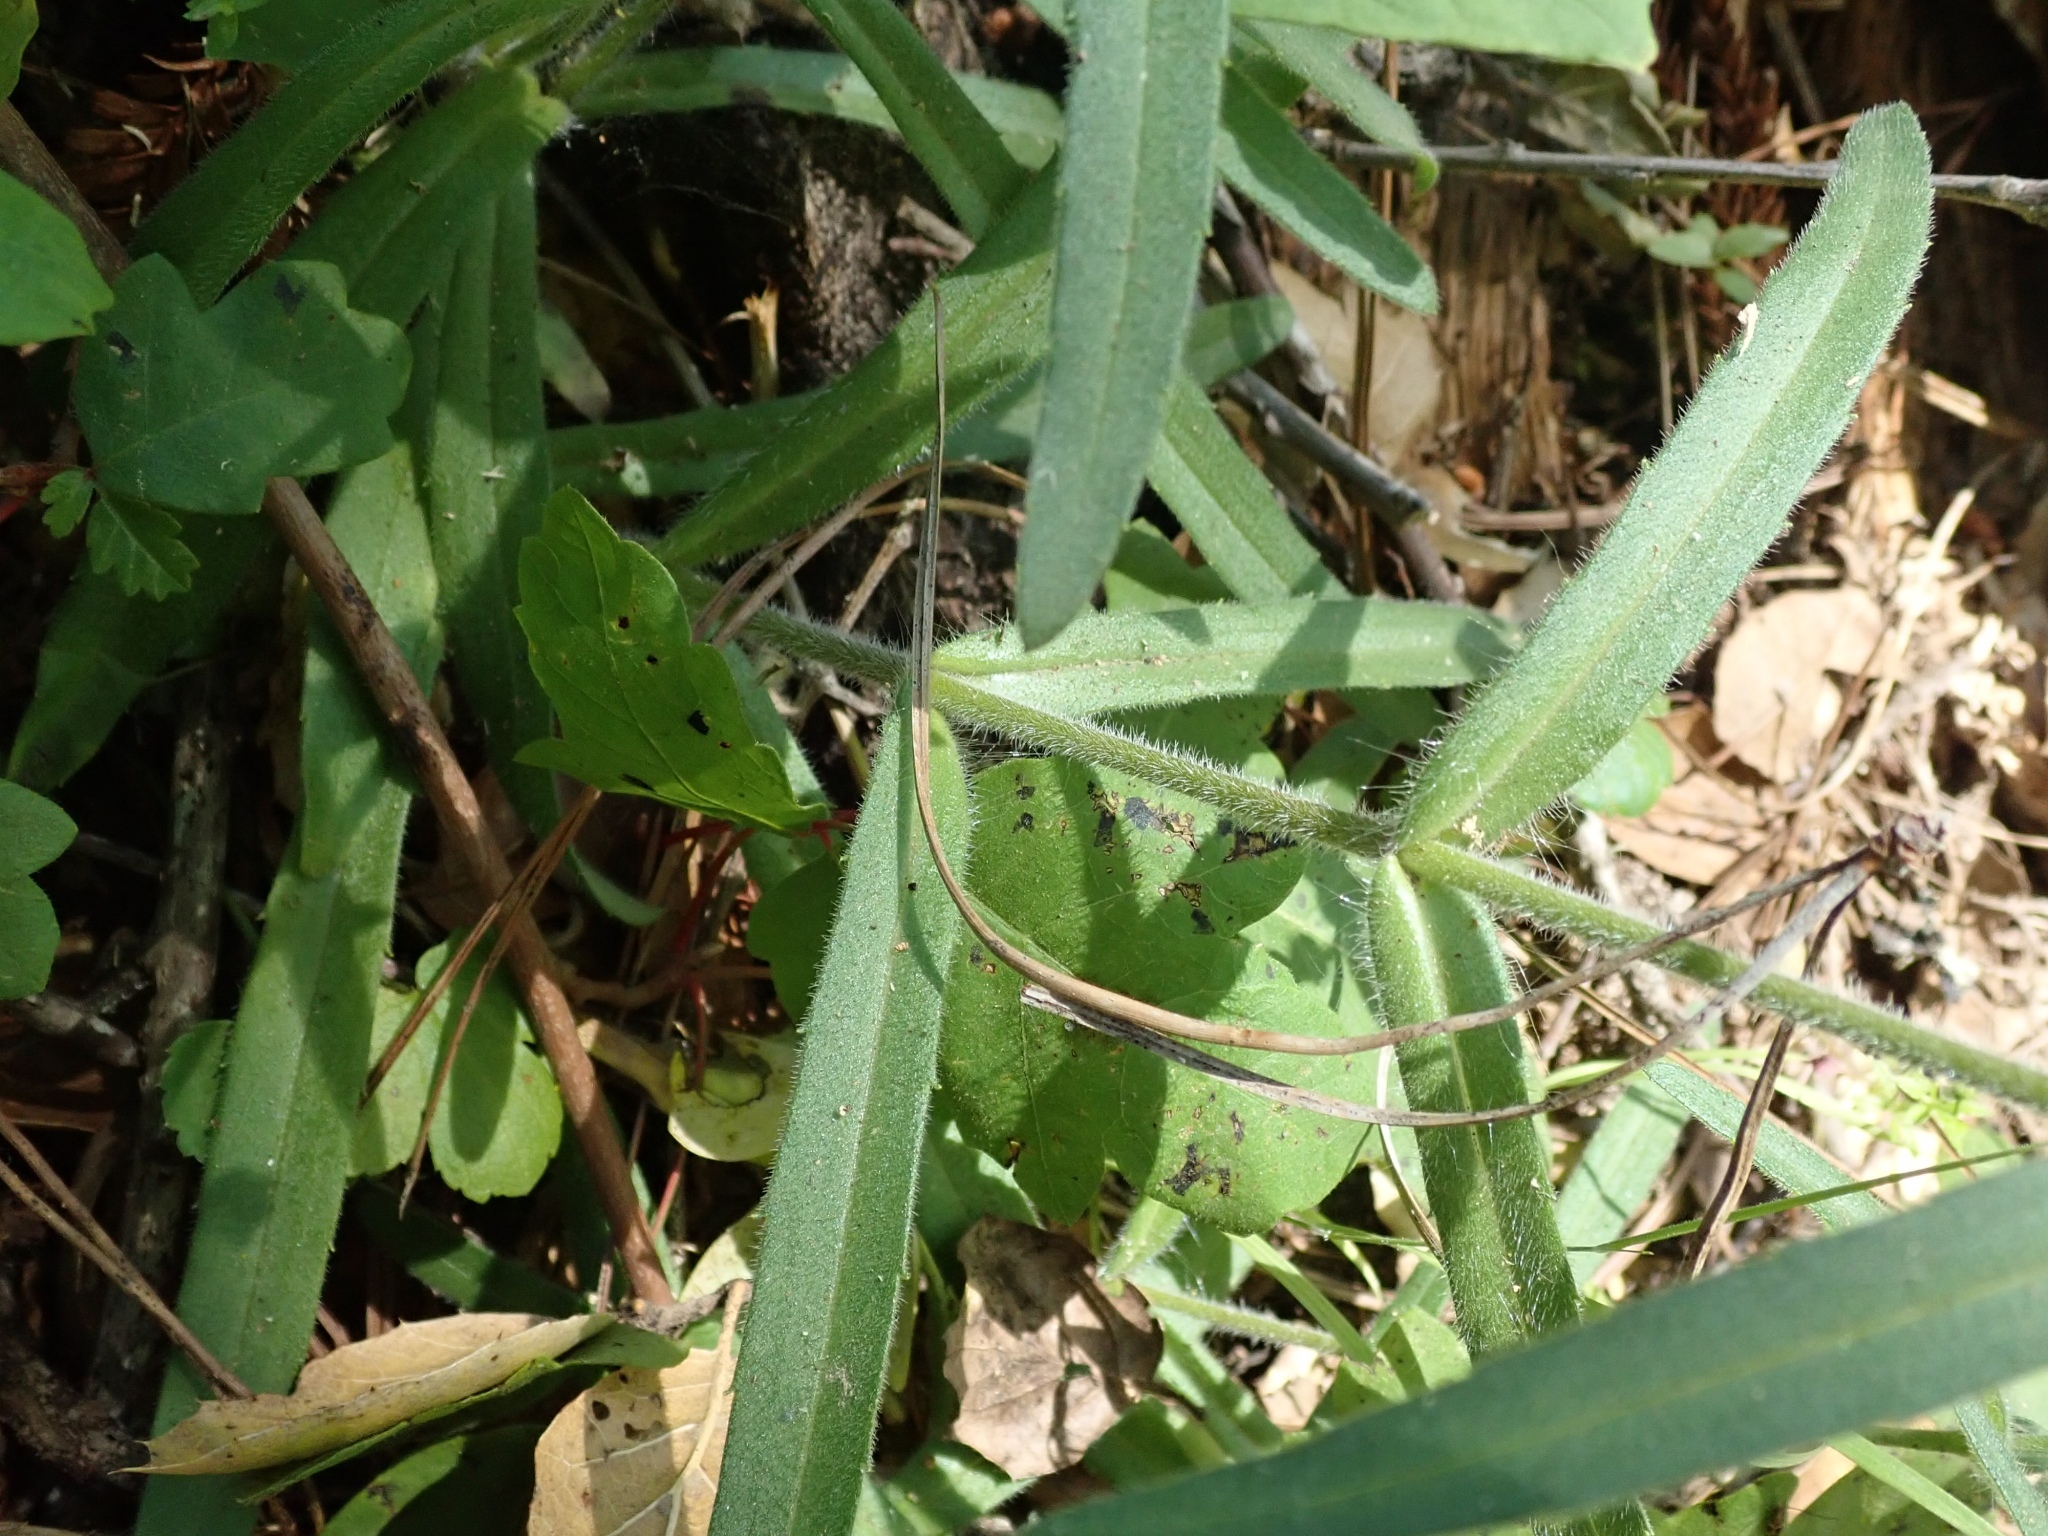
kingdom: Plantae
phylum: Tracheophyta
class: Magnoliopsida
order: Asterales
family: Asteraceae
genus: Anisocarpus
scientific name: Anisocarpus madioides
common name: Woodland madia
